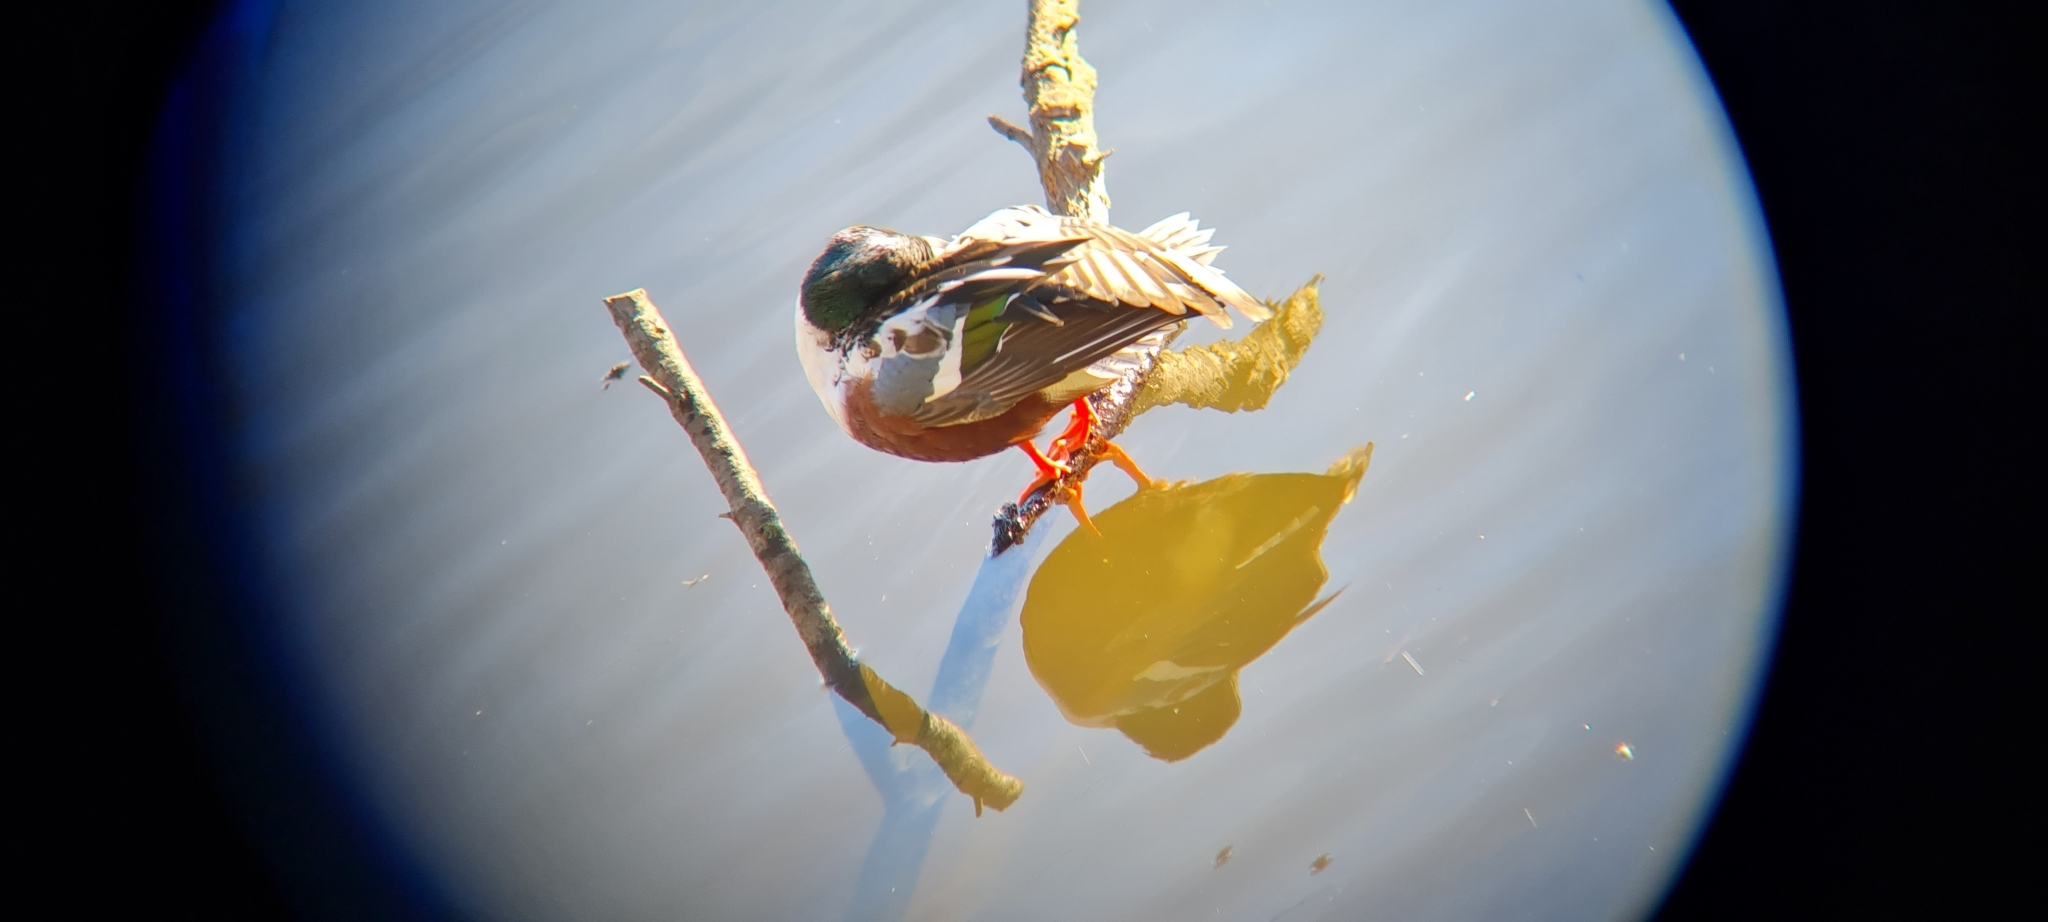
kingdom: Animalia
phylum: Chordata
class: Aves
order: Anseriformes
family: Anatidae
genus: Spatula
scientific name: Spatula clypeata
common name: Northern shoveler
